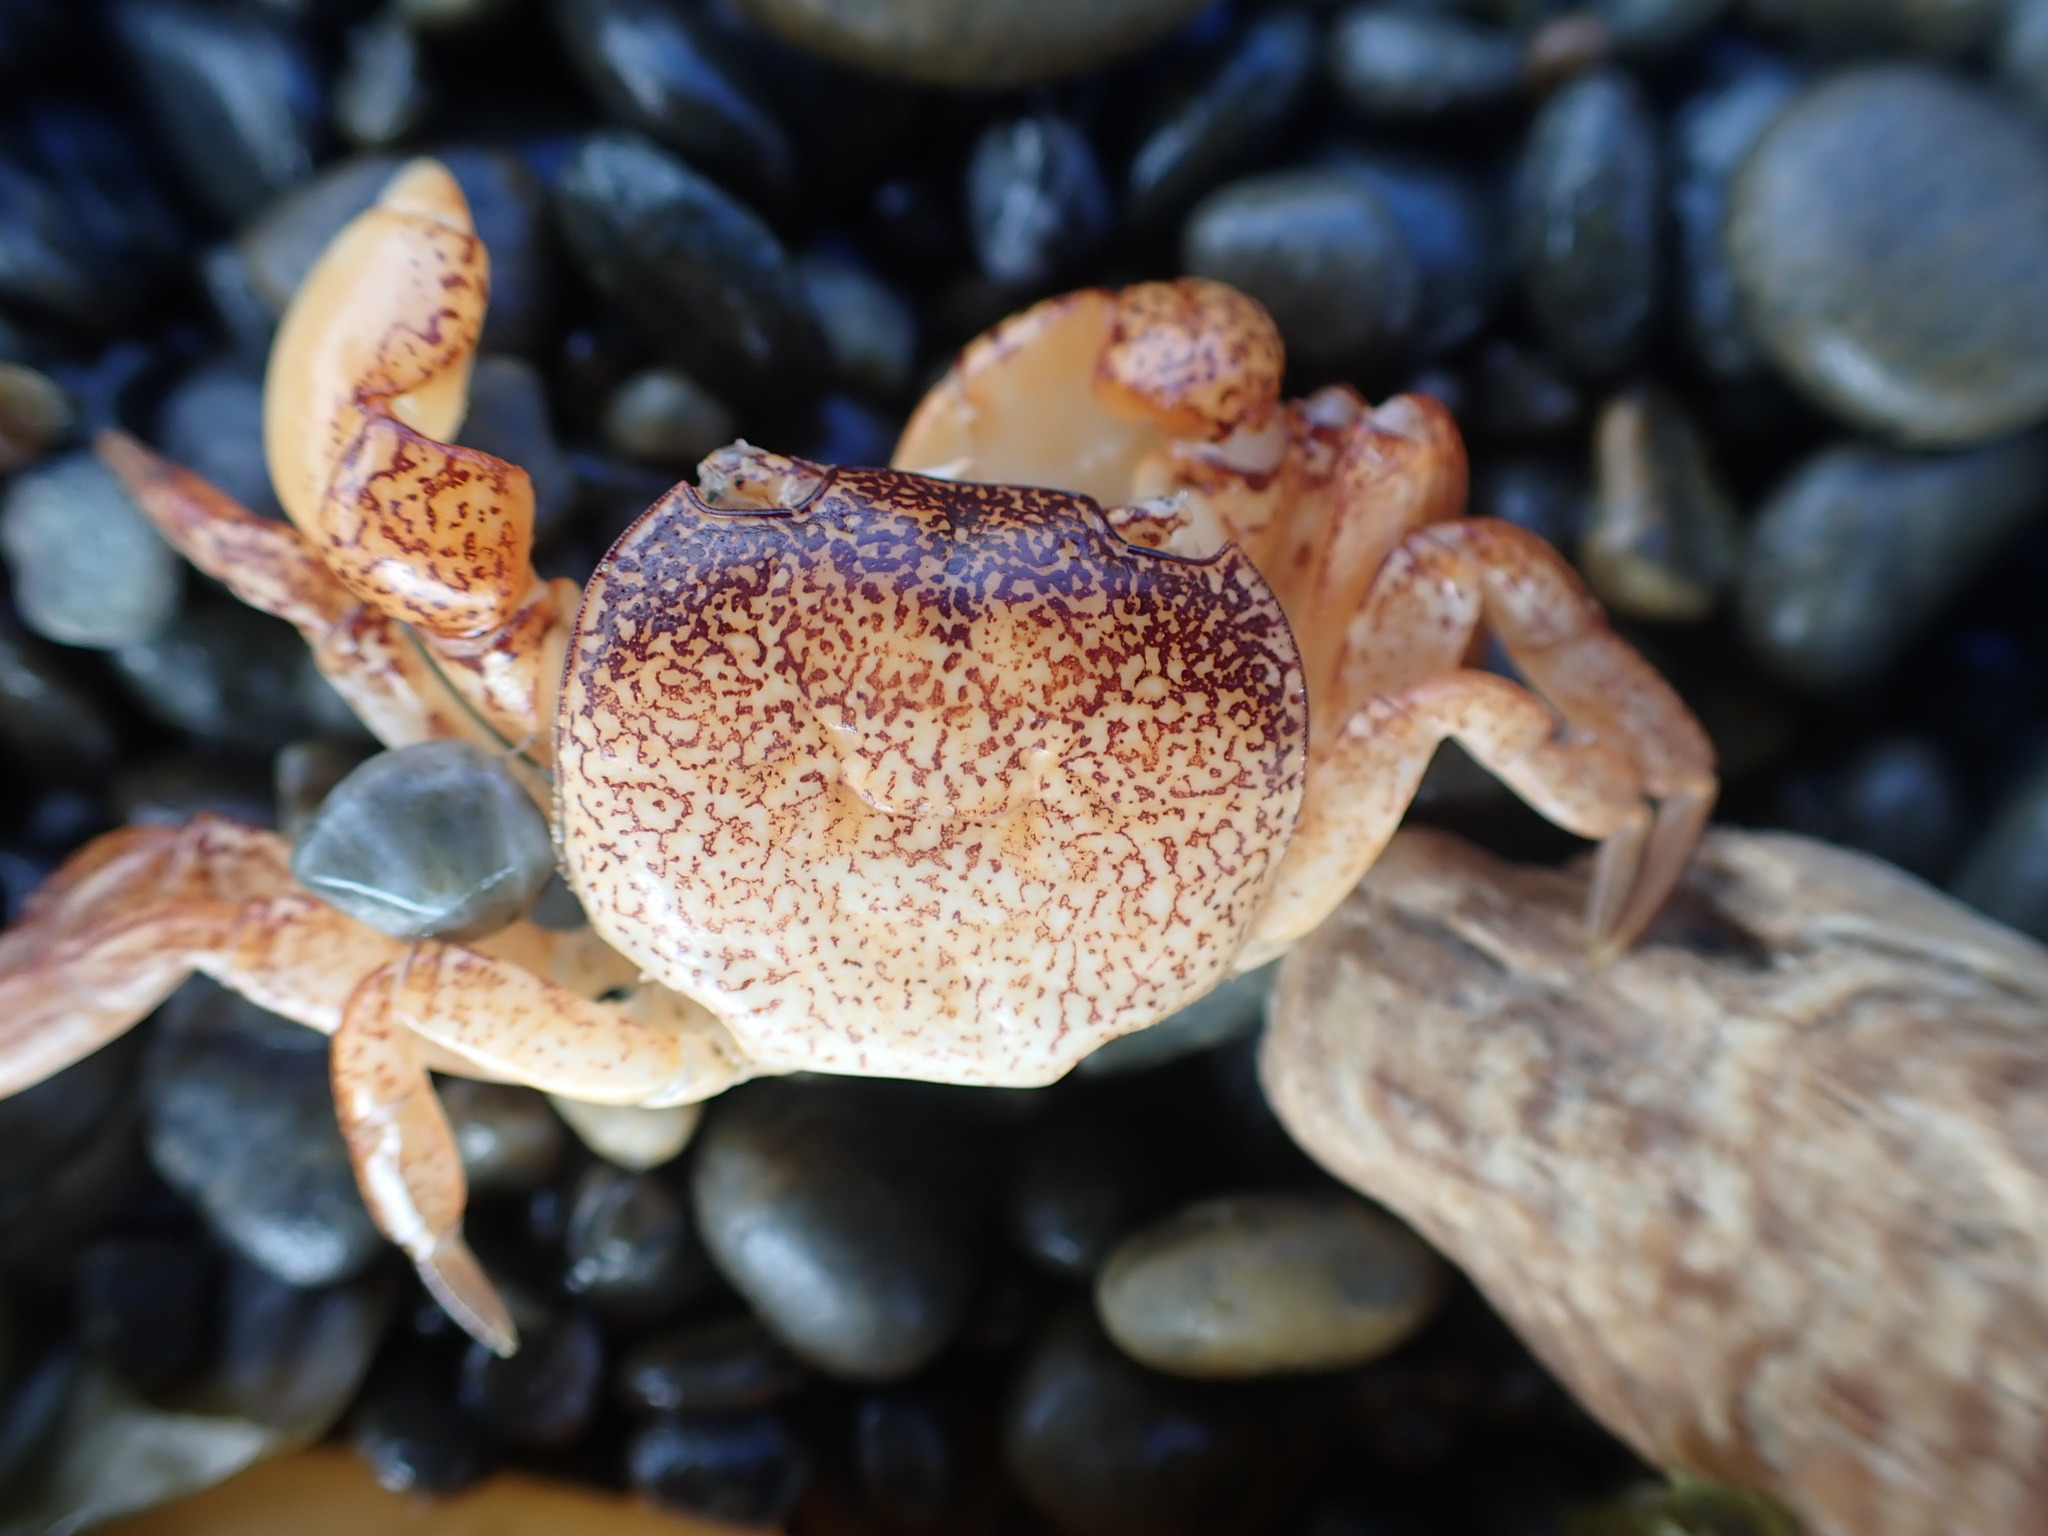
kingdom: Animalia
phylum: Arthropoda
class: Malacostraca
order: Decapoda
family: Varunidae
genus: Cyclograpsus
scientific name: Cyclograpsus lavauxi
